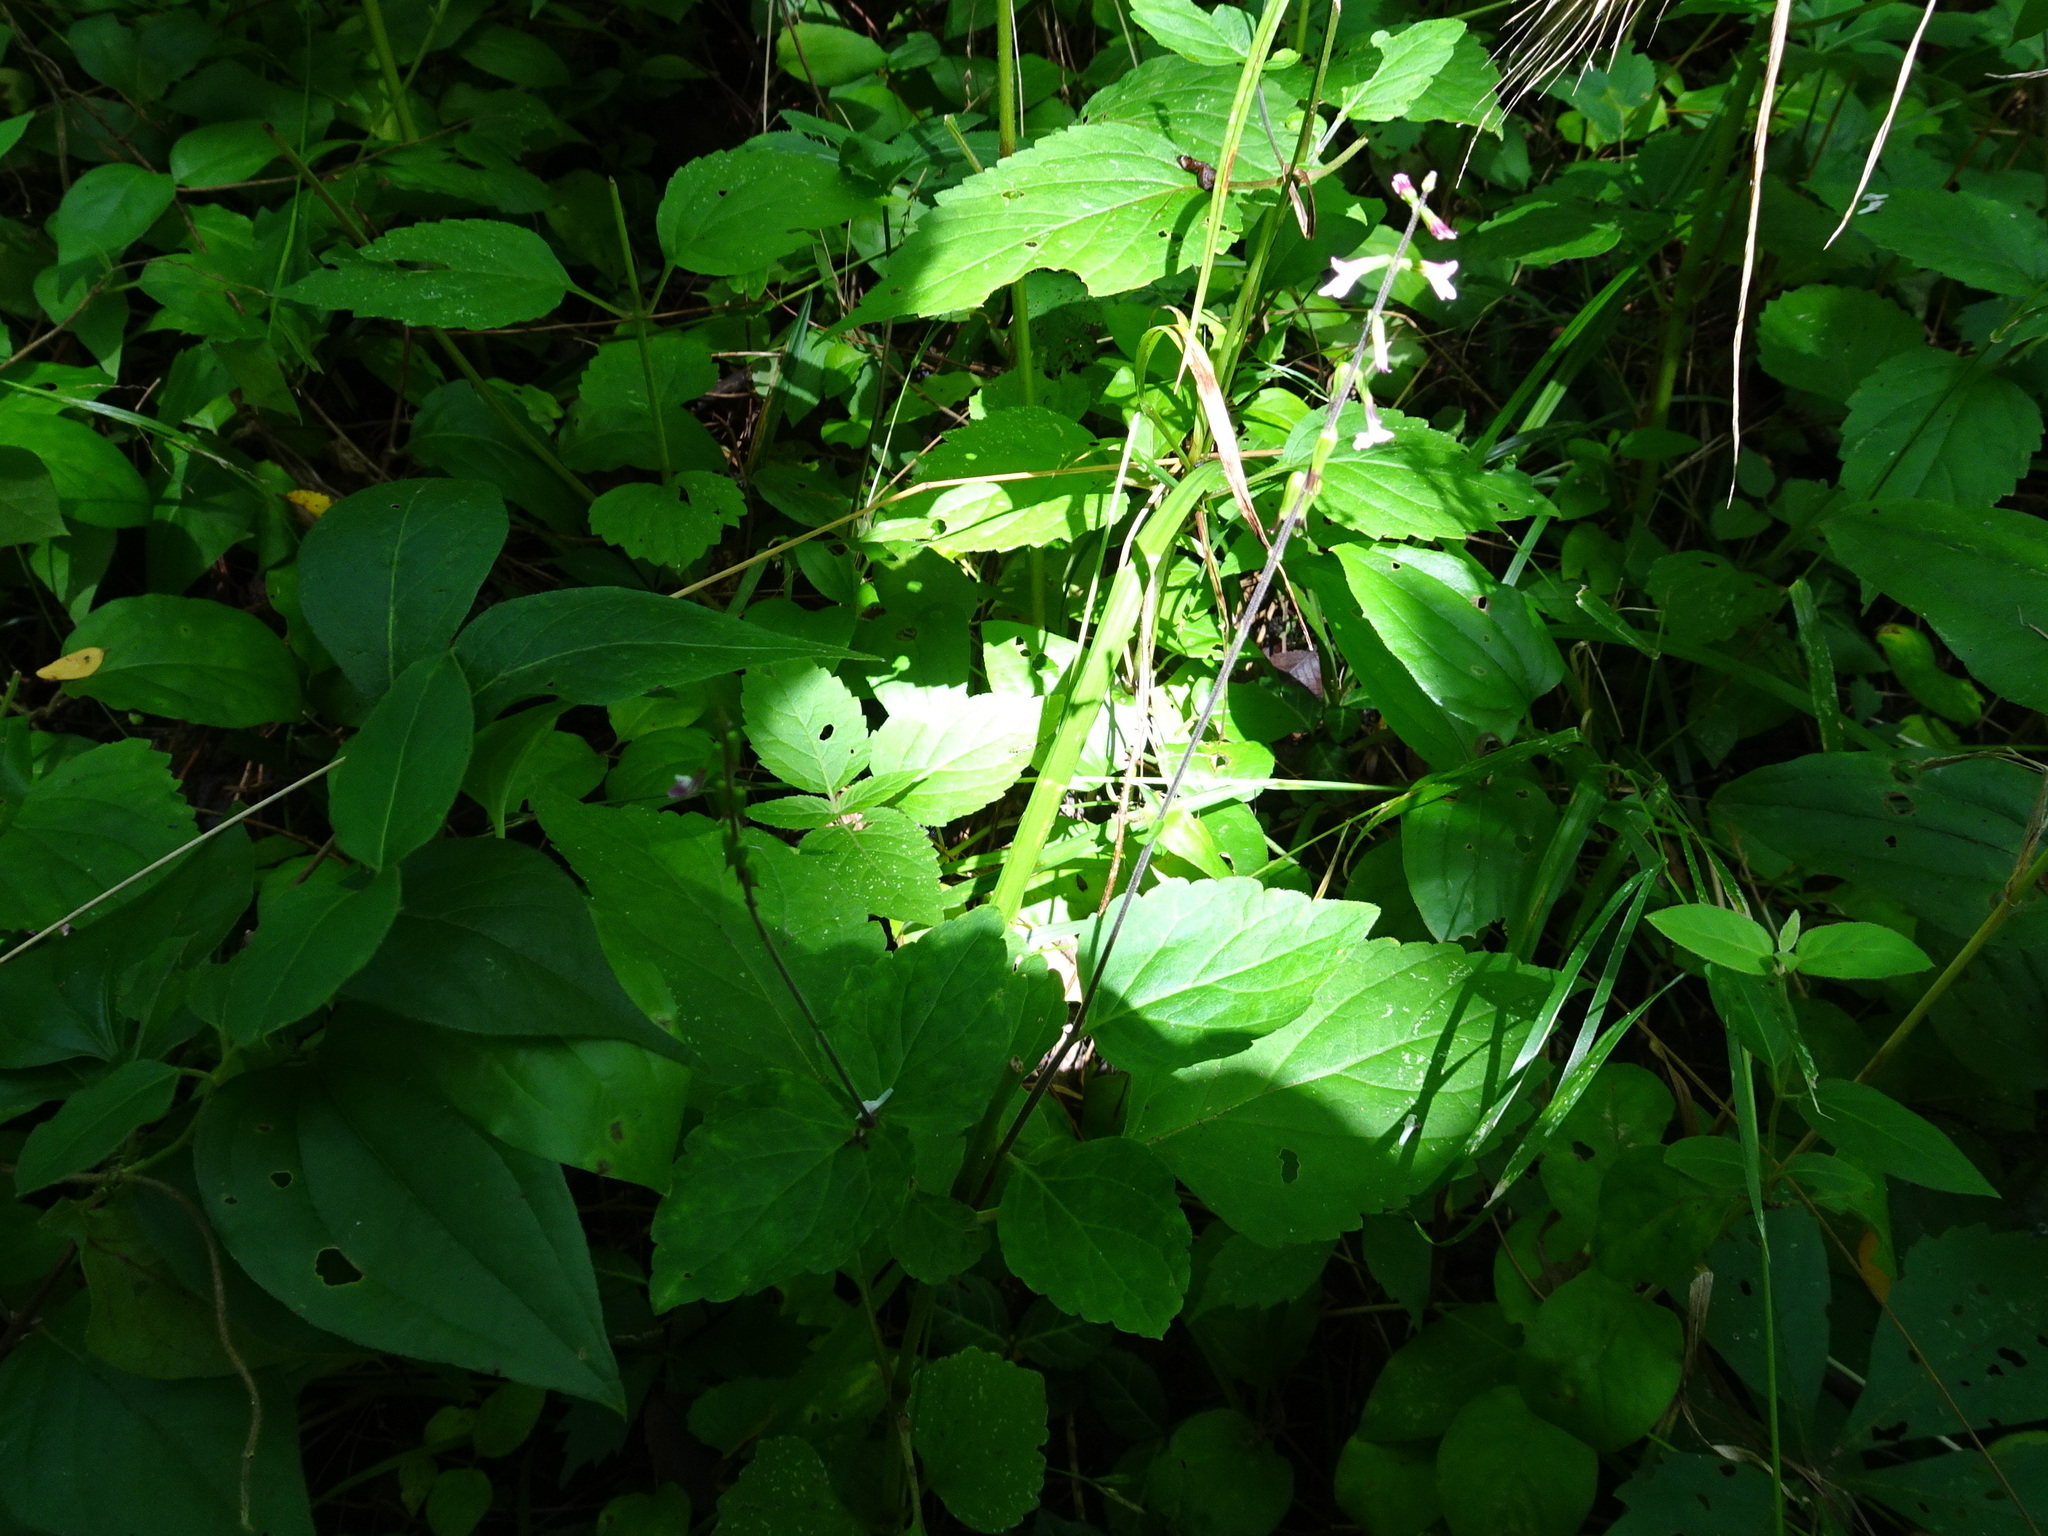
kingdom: Plantae
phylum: Tracheophyta
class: Magnoliopsida
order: Lamiales
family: Phrymaceae
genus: Phryma
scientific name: Phryma leptostachya
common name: American lopseed
